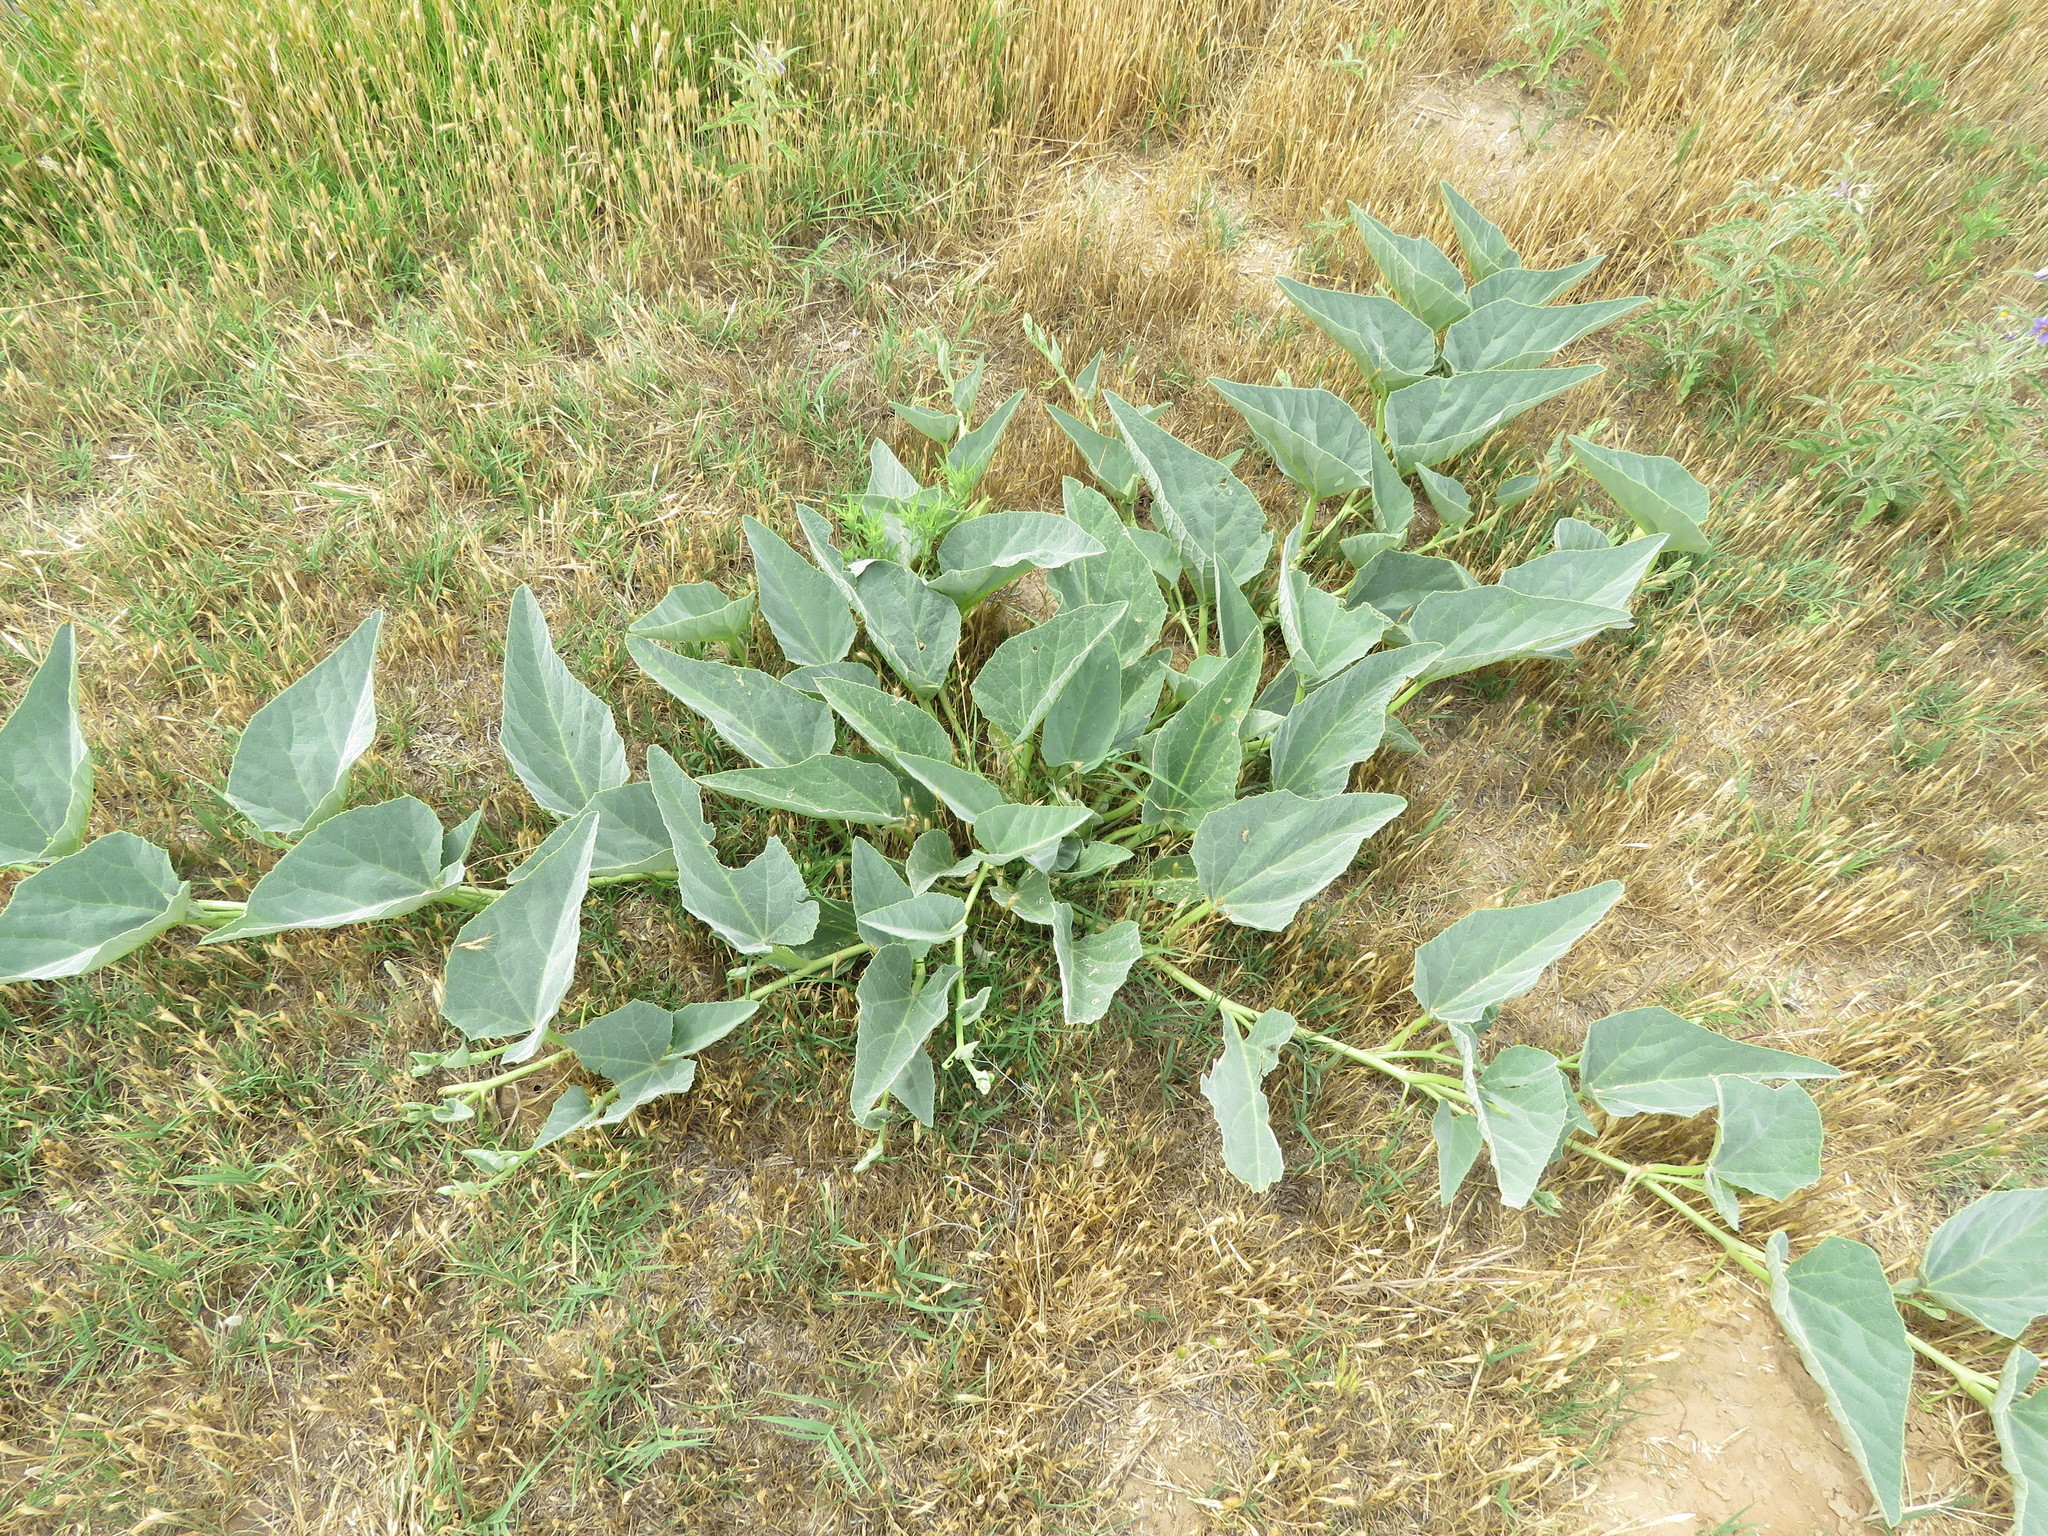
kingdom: Plantae
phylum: Tracheophyta
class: Magnoliopsida
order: Cucurbitales
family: Cucurbitaceae
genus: Cucurbita
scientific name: Cucurbita foetidissima
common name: Buffalo gourd
